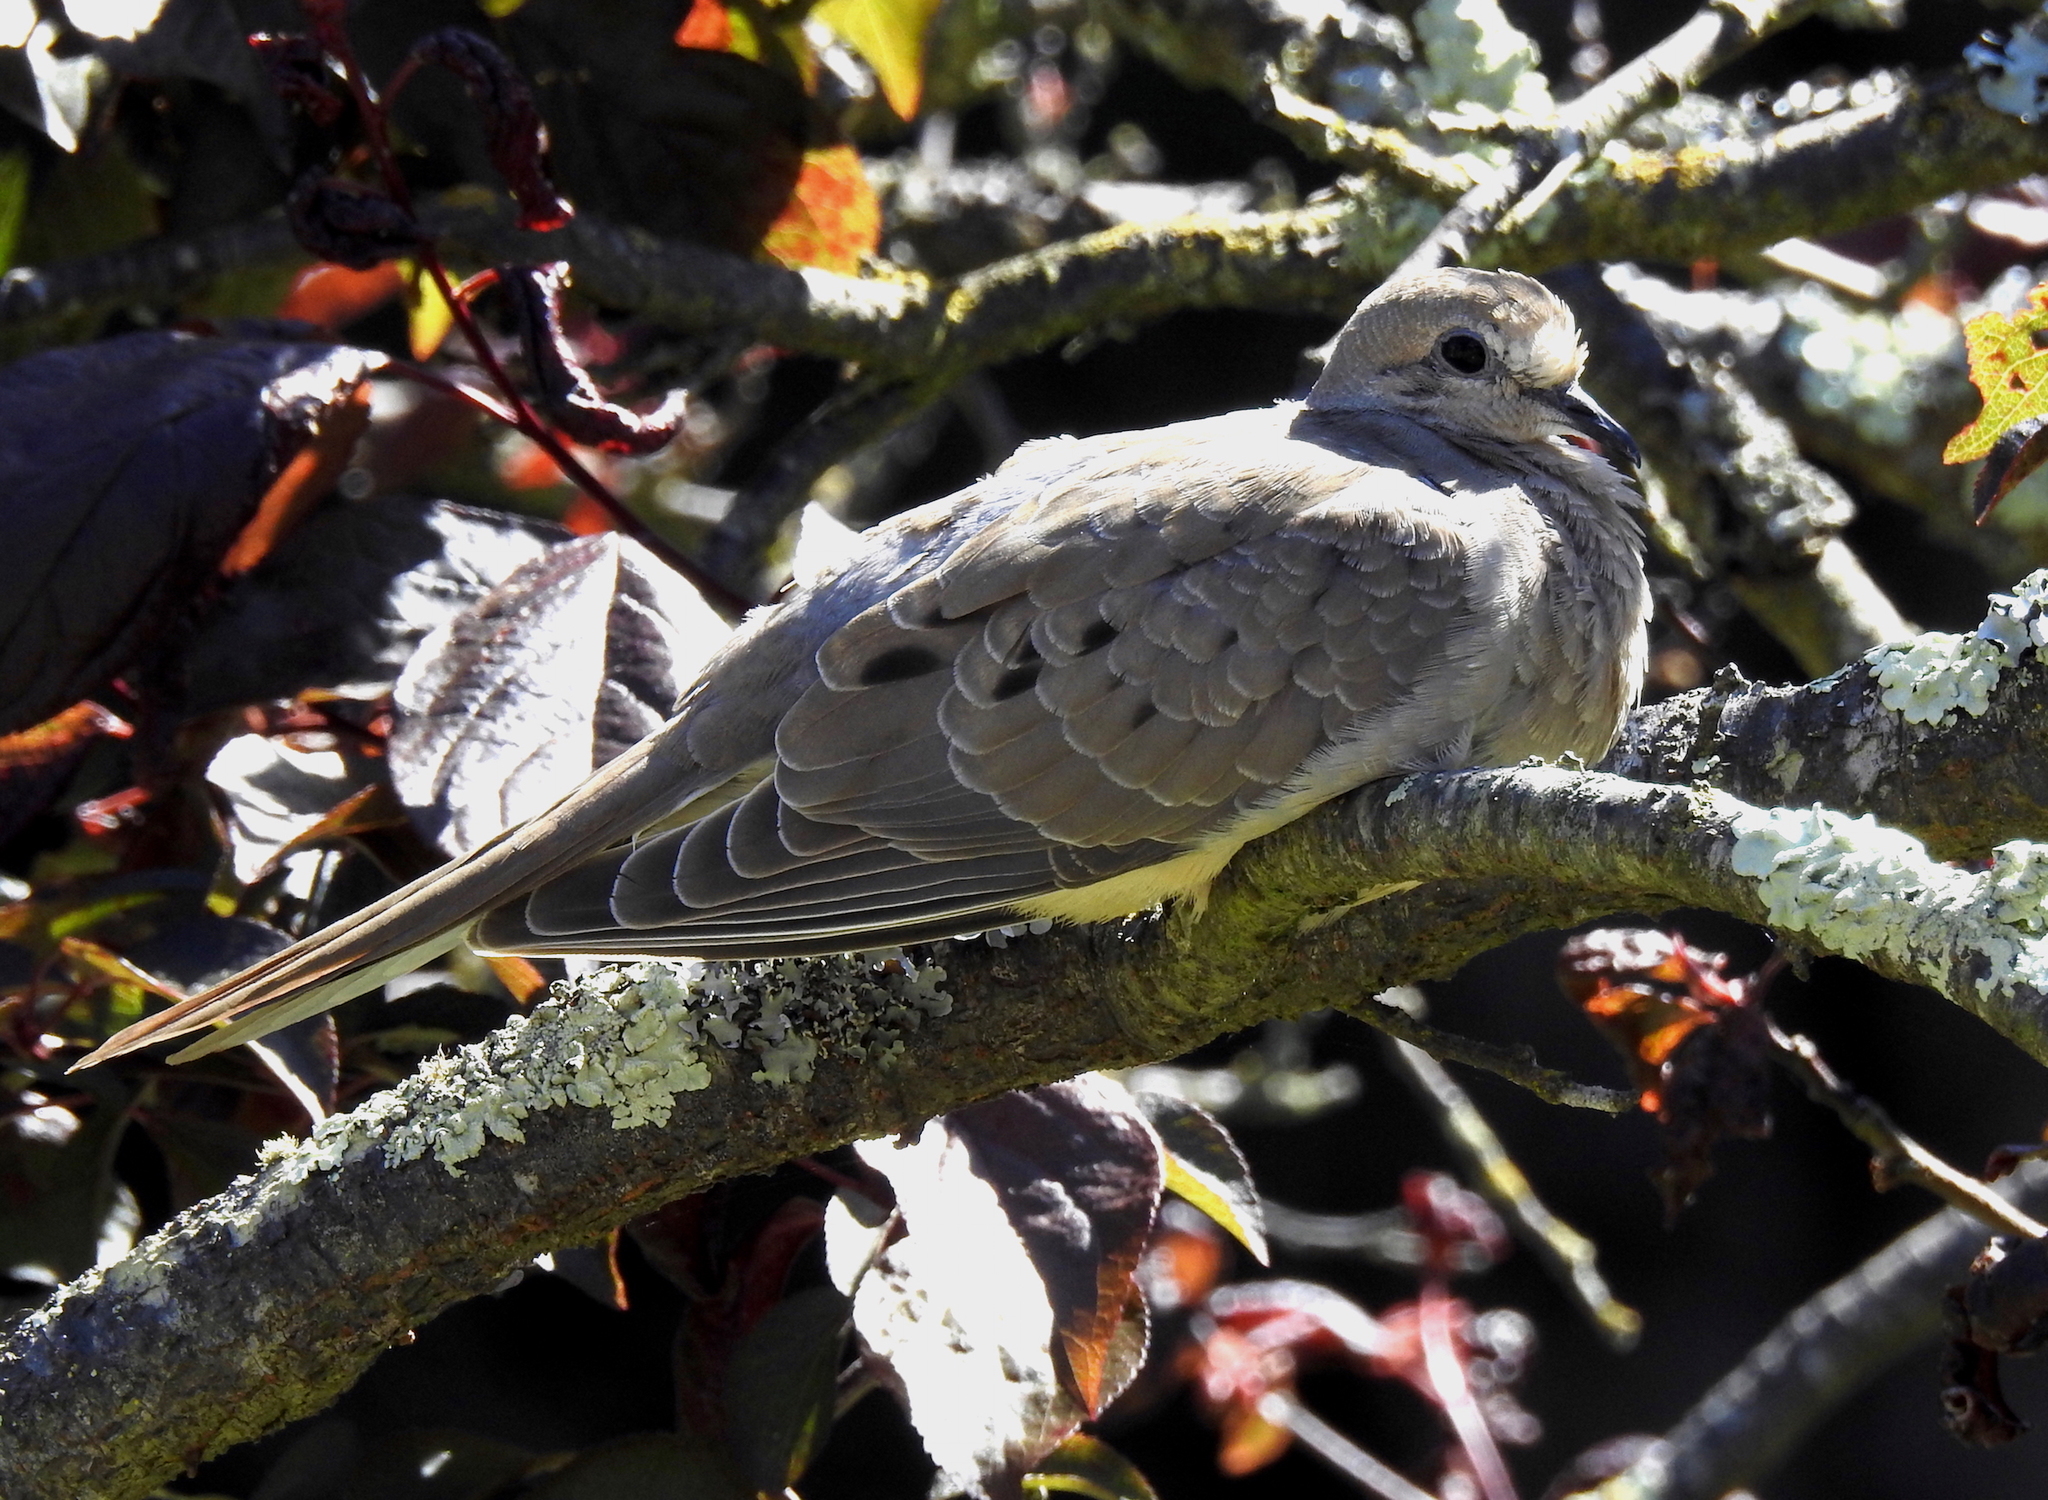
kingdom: Animalia
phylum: Chordata
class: Aves
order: Columbiformes
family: Columbidae
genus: Zenaida
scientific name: Zenaida macroura
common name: Mourning dove
